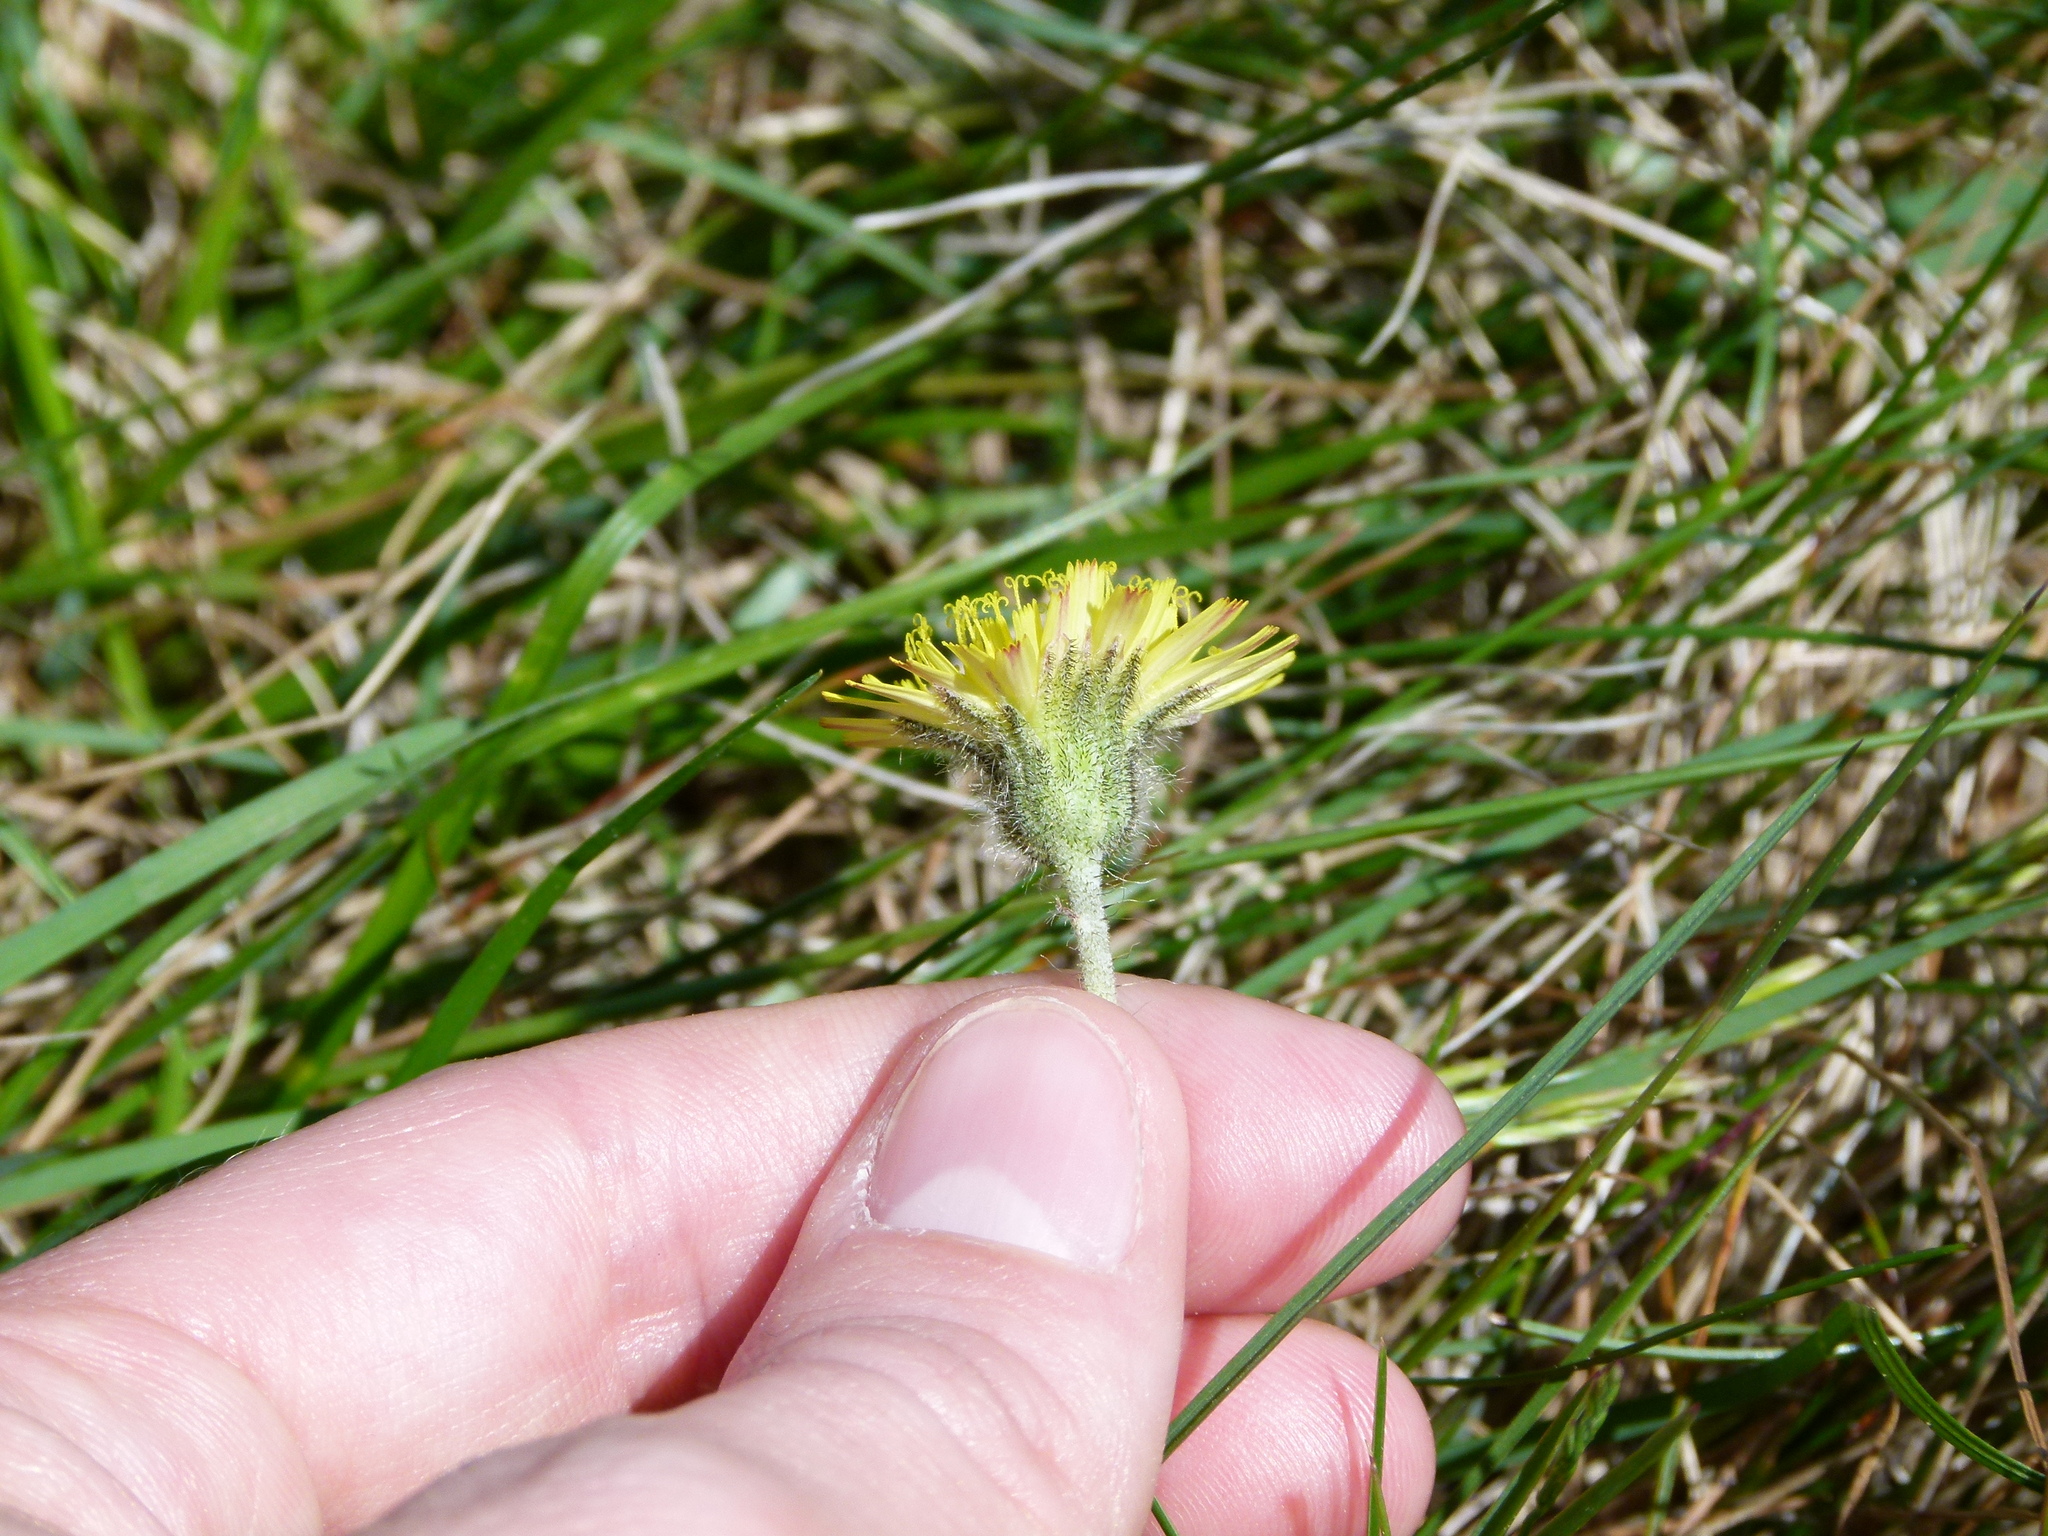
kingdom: Plantae
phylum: Tracheophyta
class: Magnoliopsida
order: Asterales
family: Asteraceae
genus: Pilosella
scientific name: Pilosella officinarum
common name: Mouse-ear hawkweed
